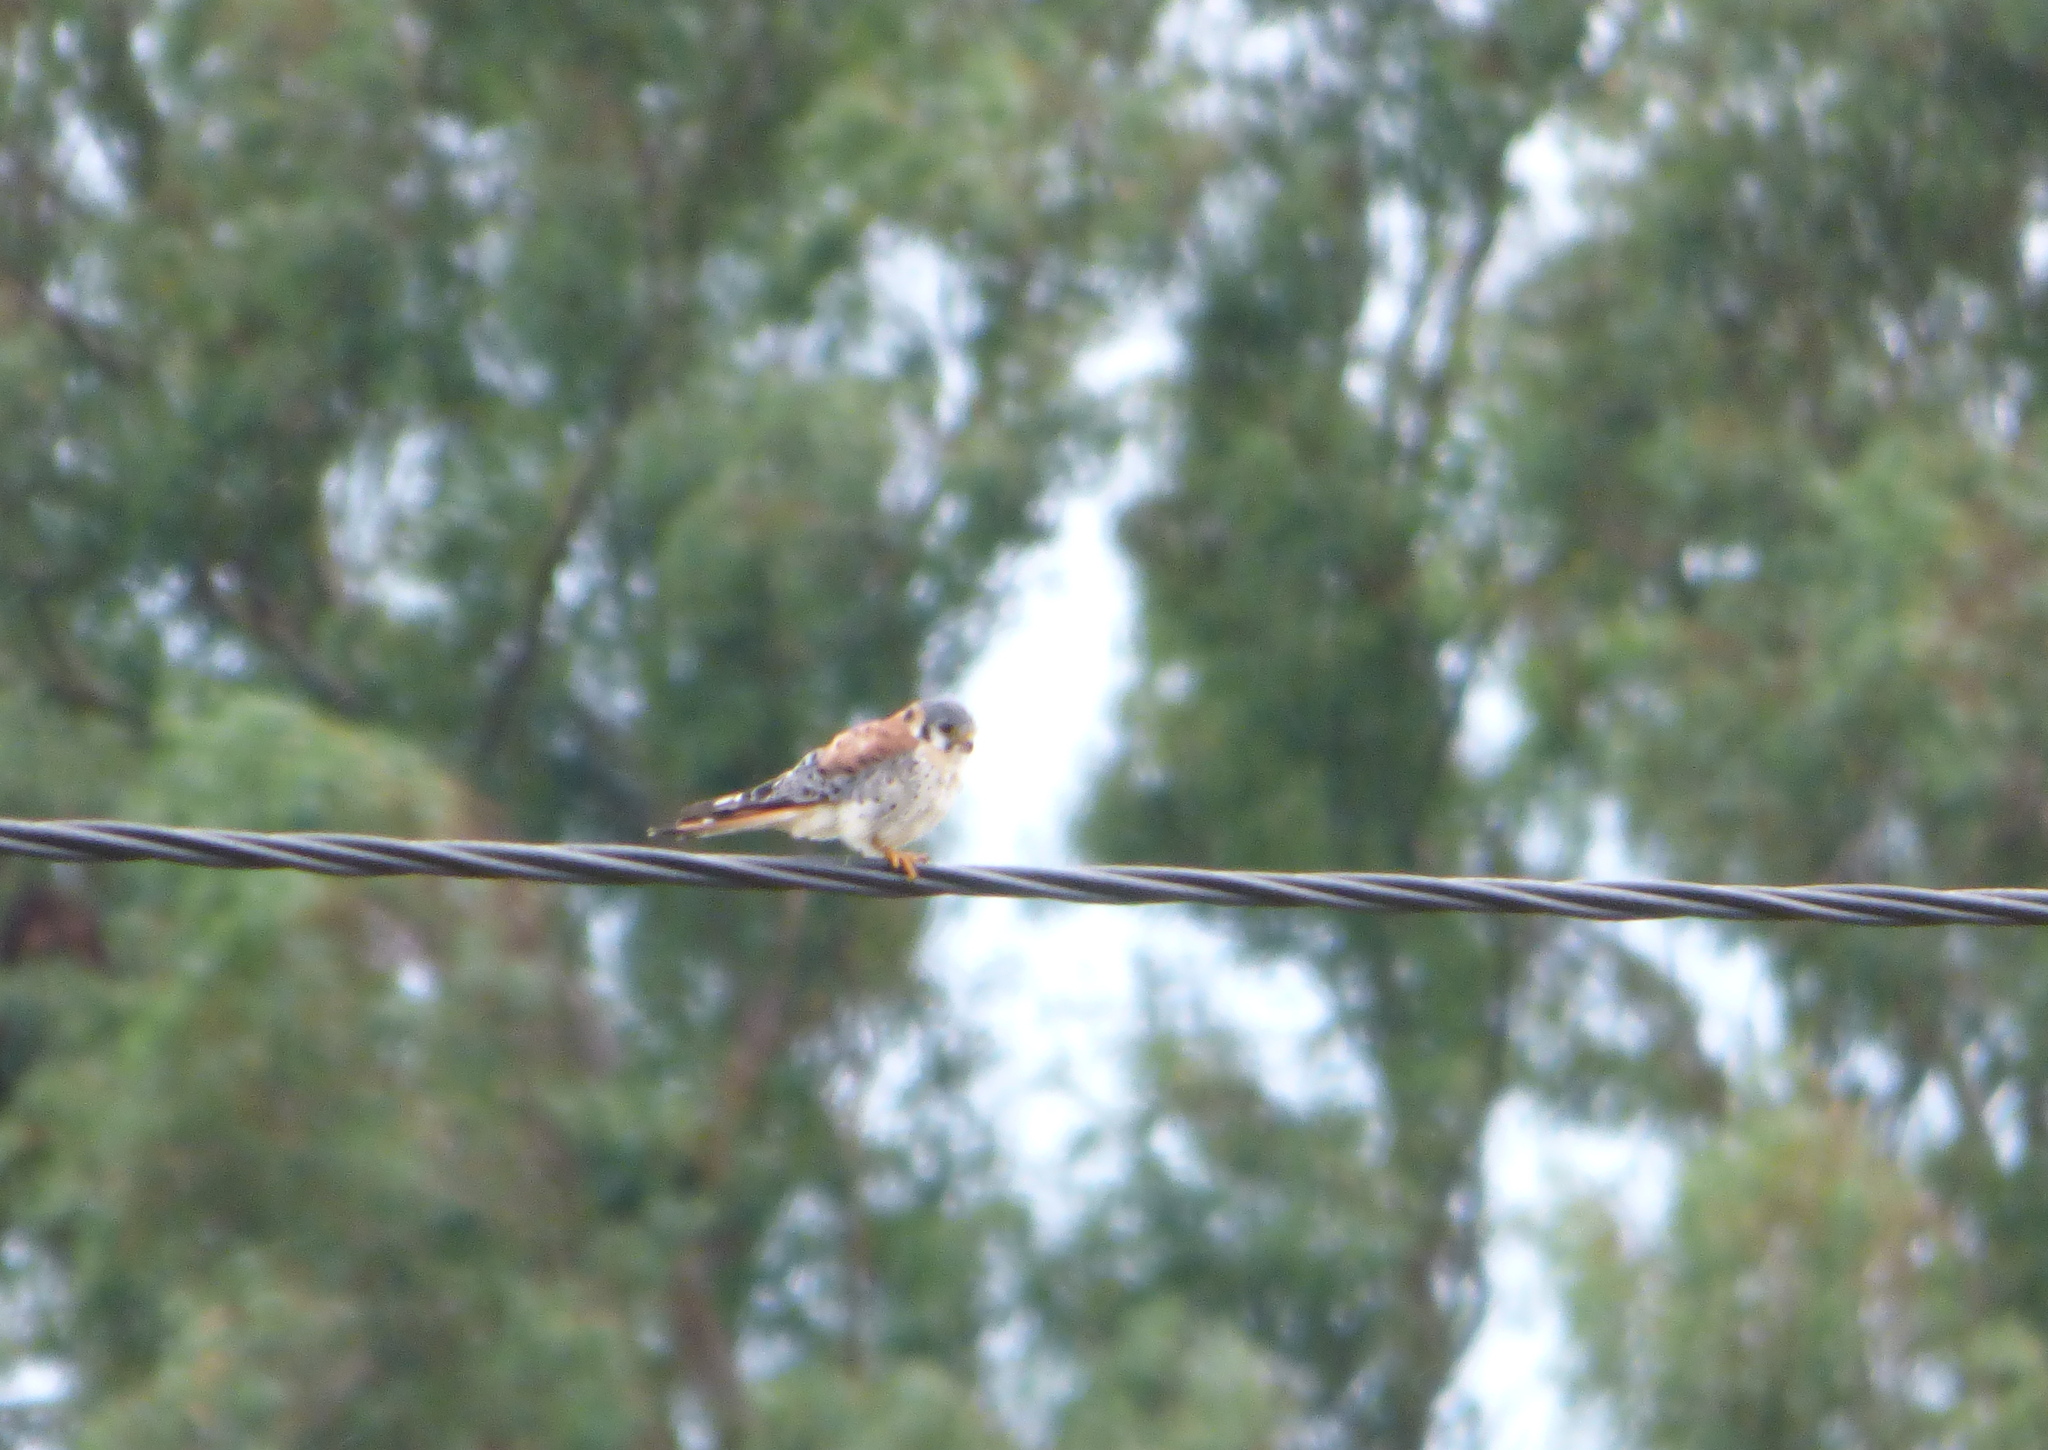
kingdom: Animalia
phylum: Chordata
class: Aves
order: Falconiformes
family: Falconidae
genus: Falco
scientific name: Falco sparverius
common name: American kestrel
